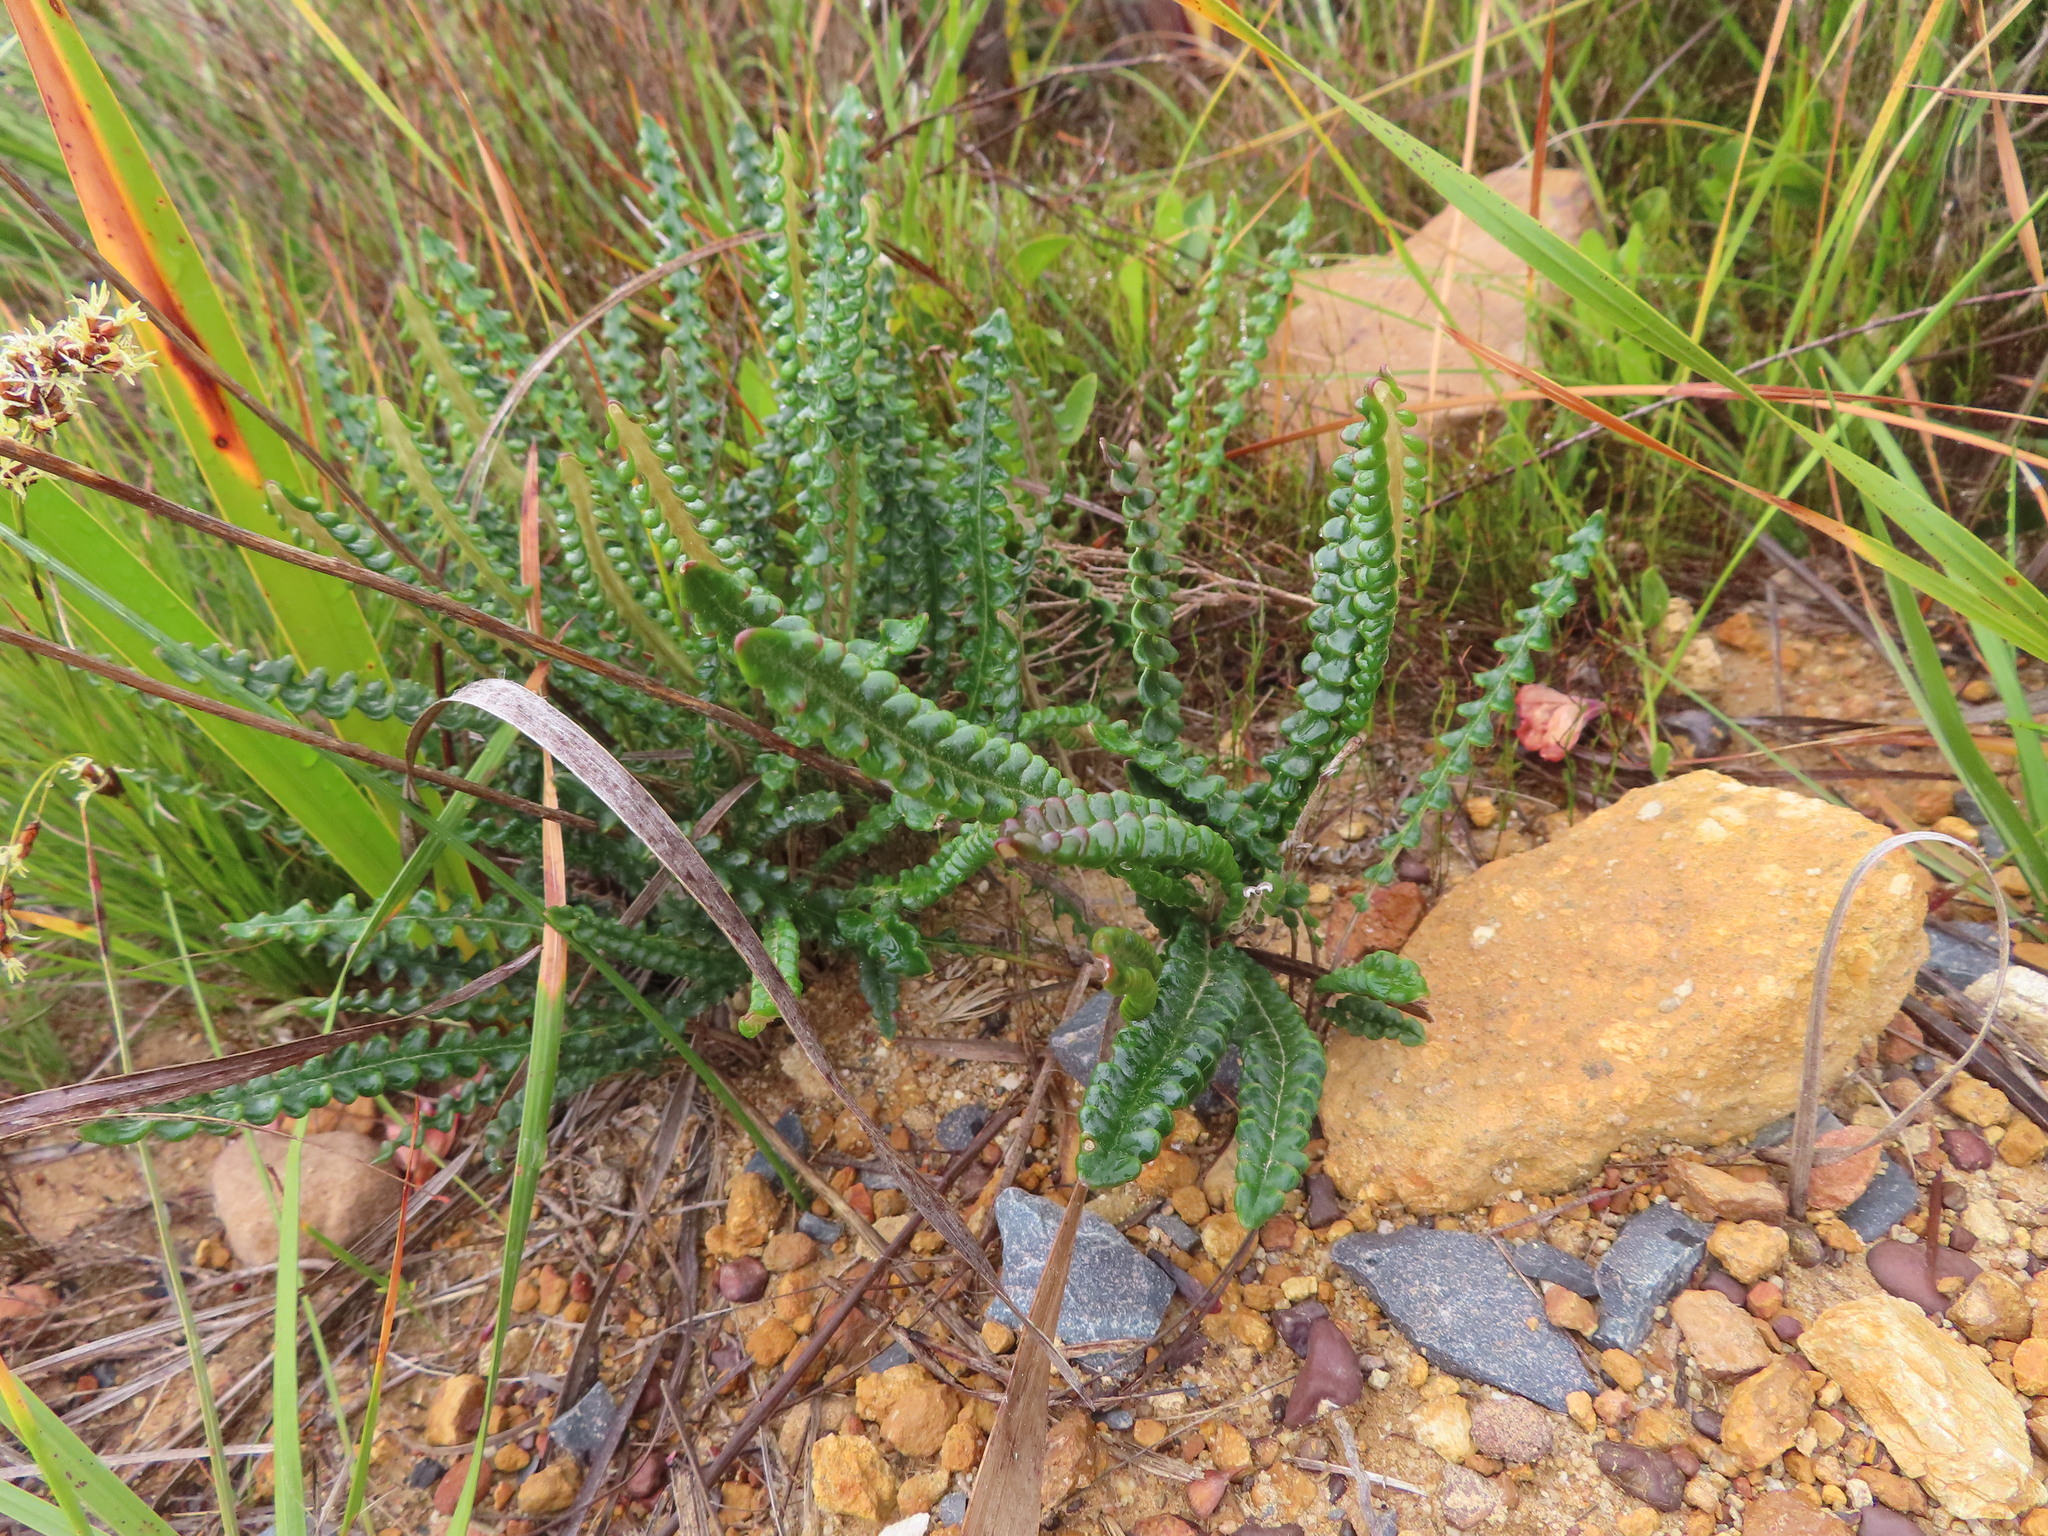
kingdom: Plantae
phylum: Tracheophyta
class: Magnoliopsida
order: Asterales
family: Asteraceae
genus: Gerbera
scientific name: Gerbera linnaei
